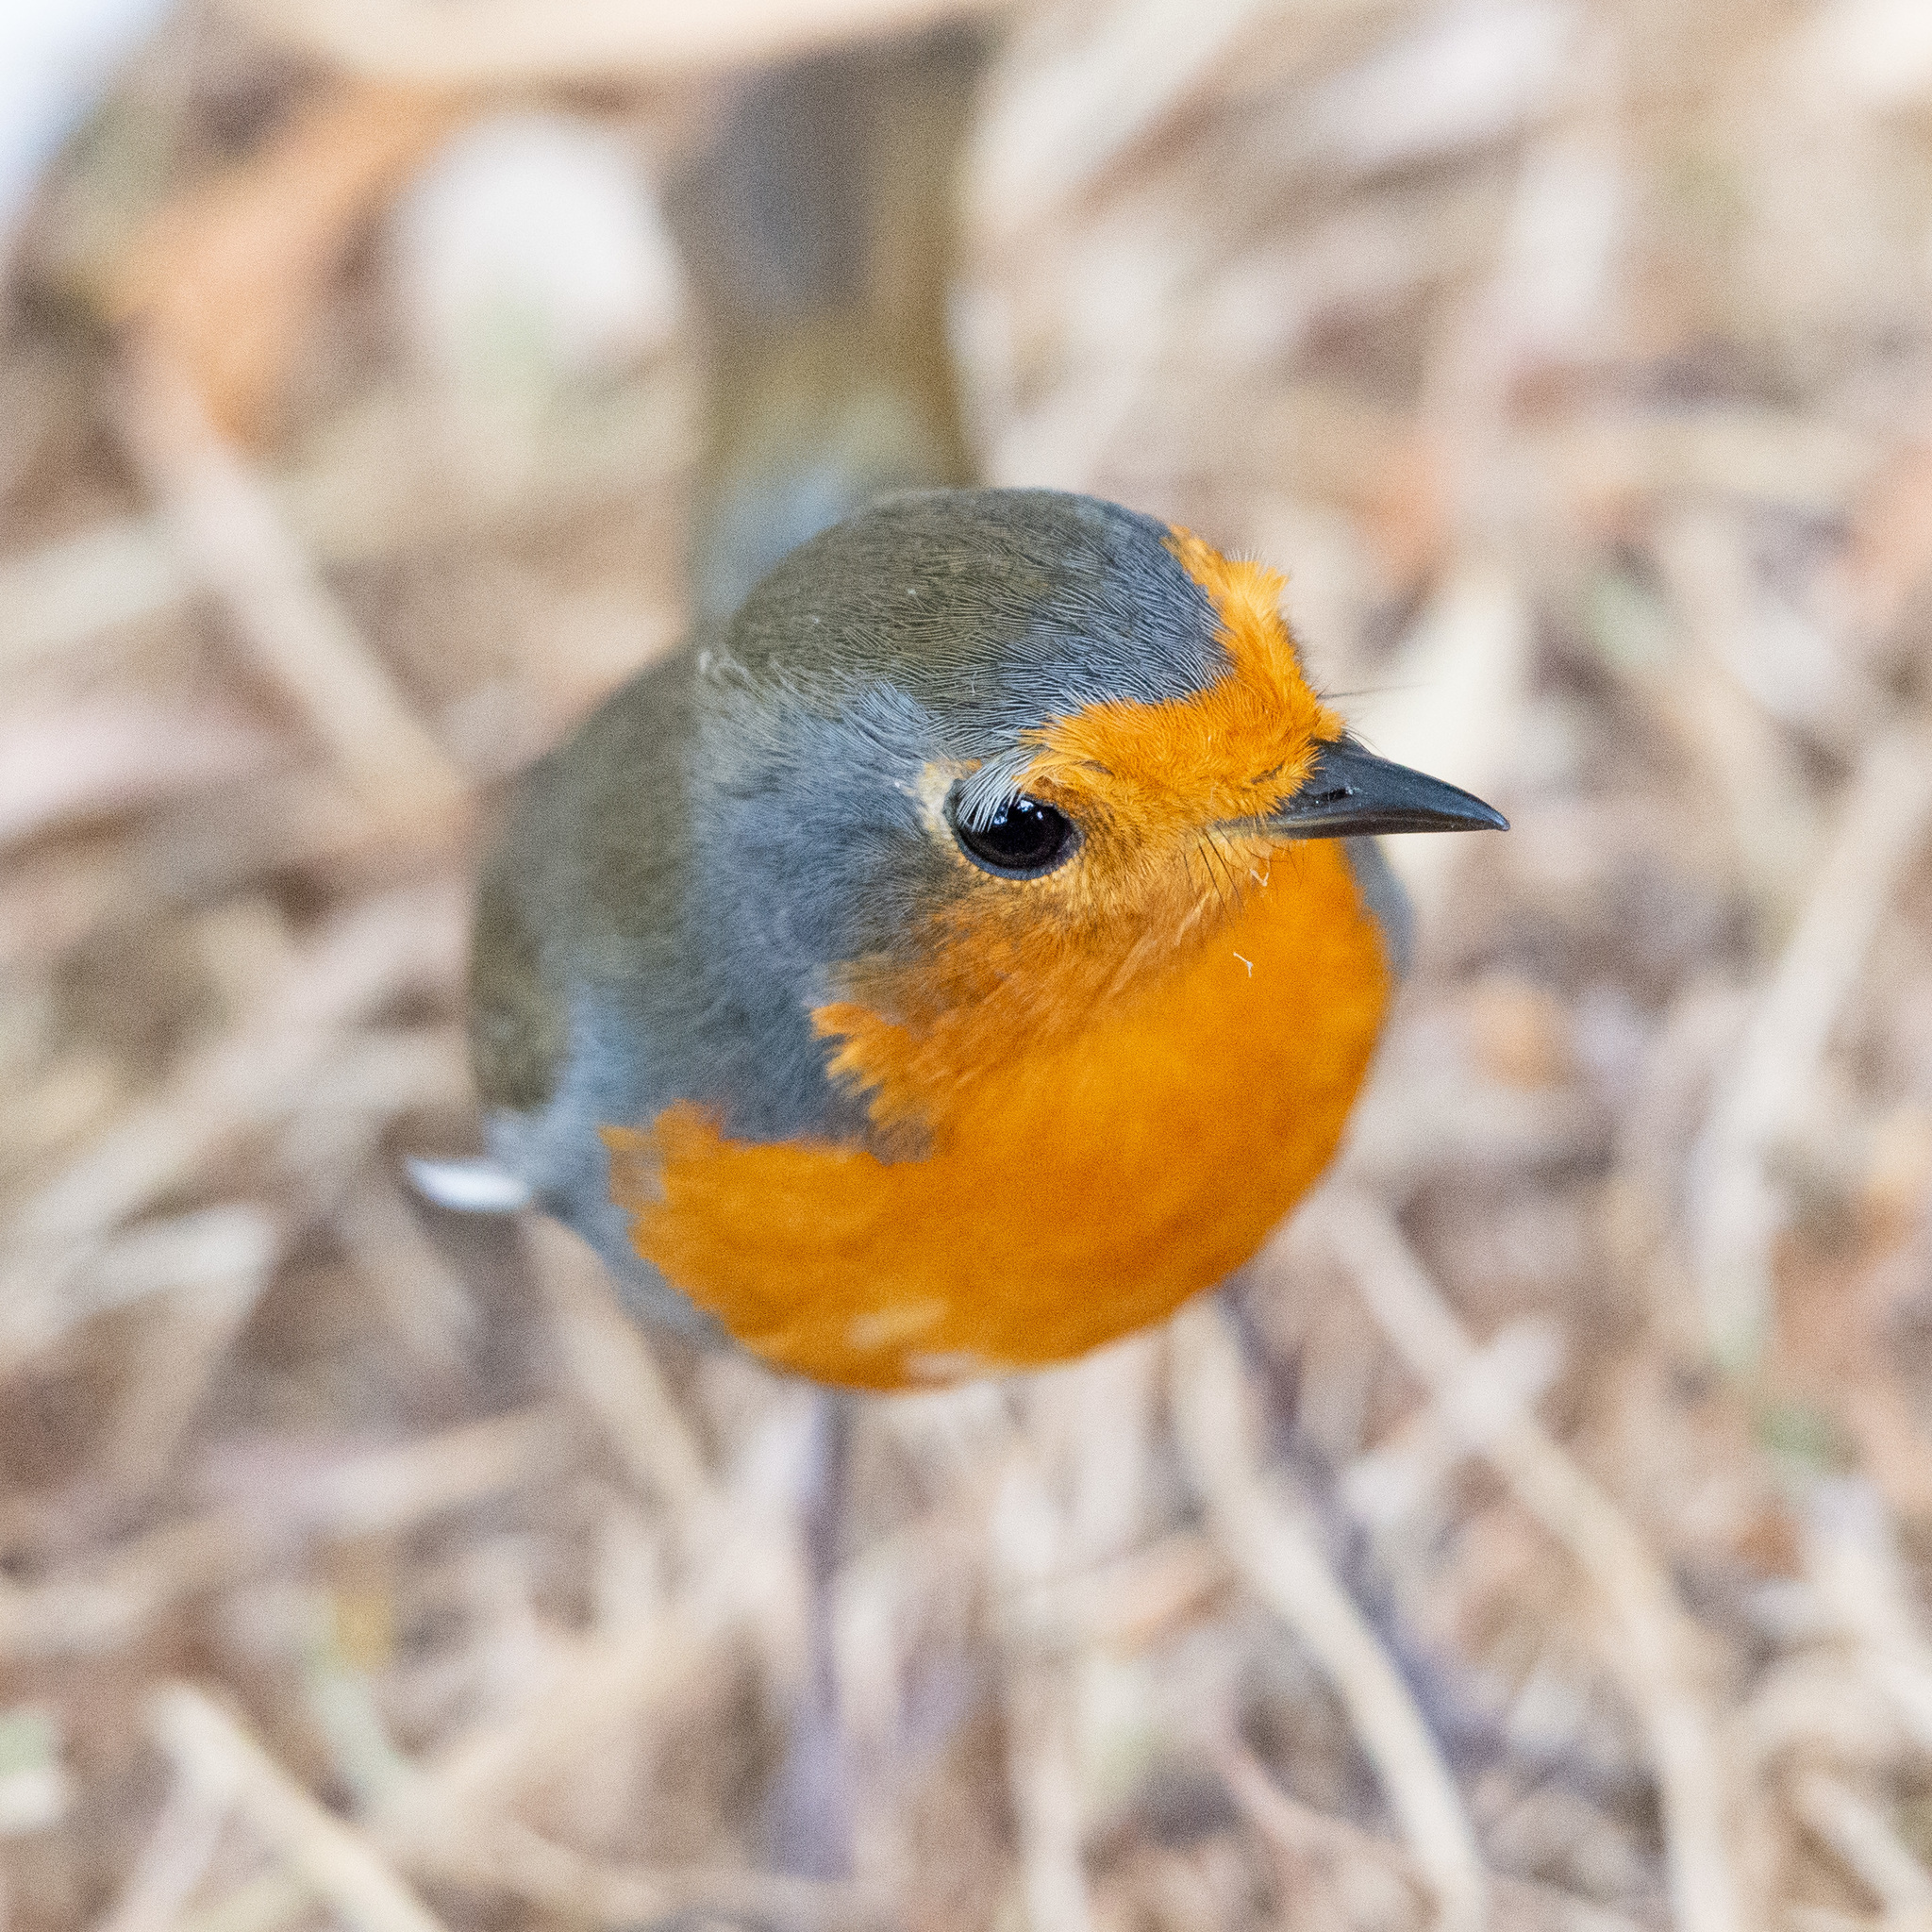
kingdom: Animalia
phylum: Chordata
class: Aves
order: Passeriformes
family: Muscicapidae
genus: Erithacus
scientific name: Erithacus rubecula
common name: European robin
